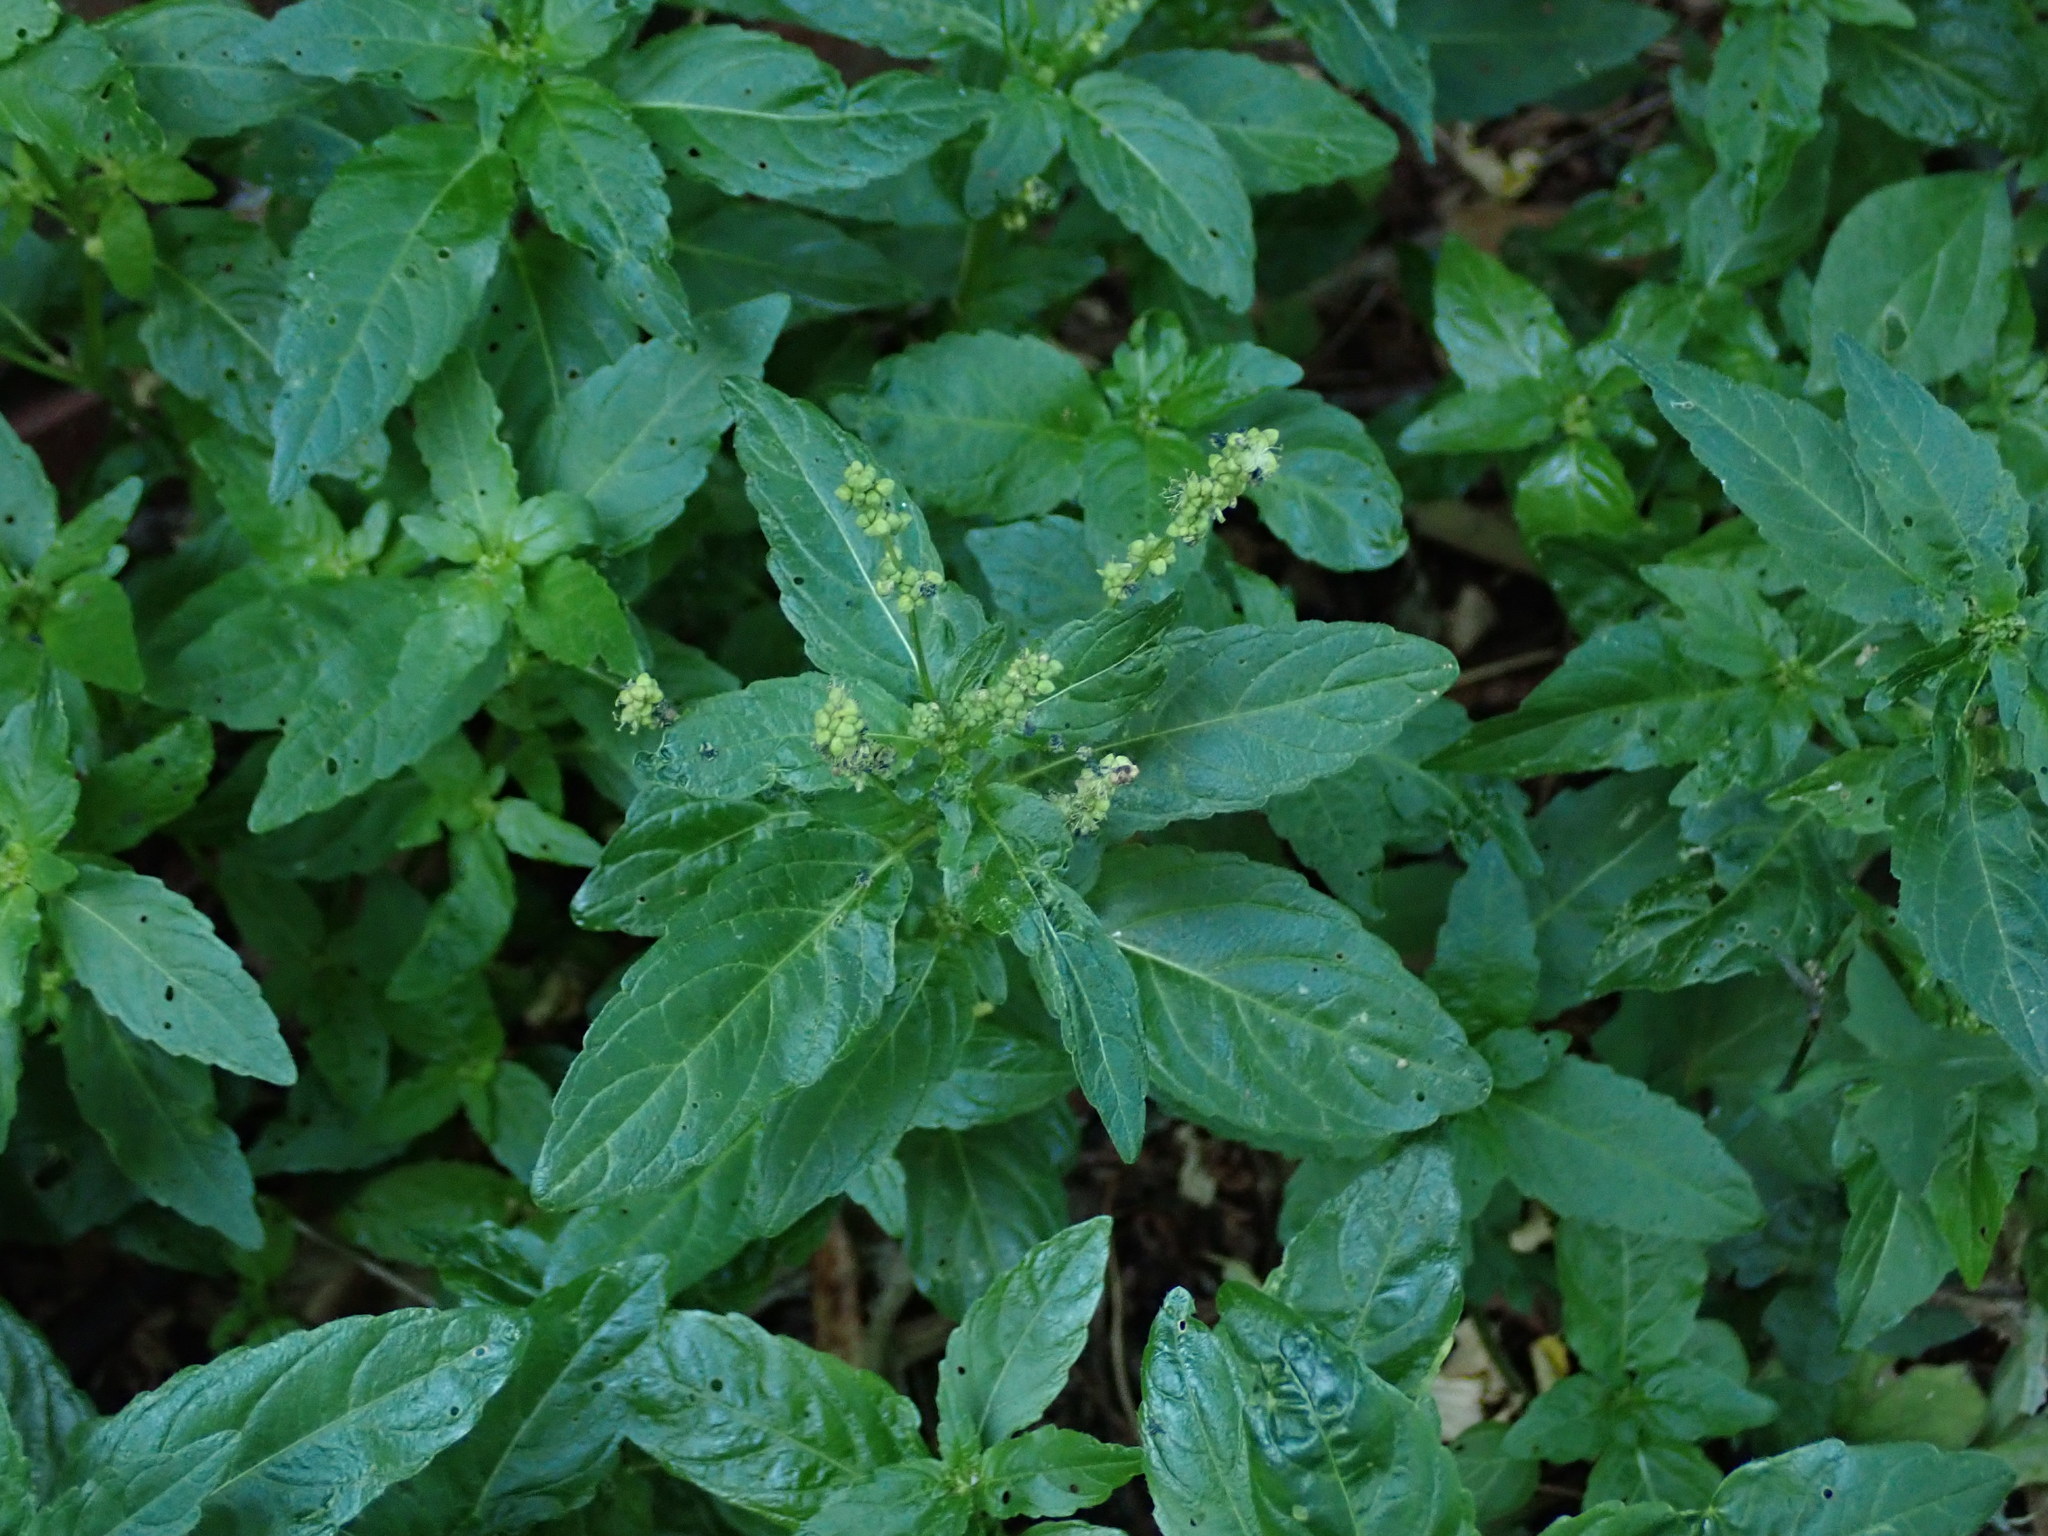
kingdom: Plantae
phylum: Tracheophyta
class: Magnoliopsida
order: Malpighiales
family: Euphorbiaceae
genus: Mercurialis
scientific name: Mercurialis annua
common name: Annual mercury
